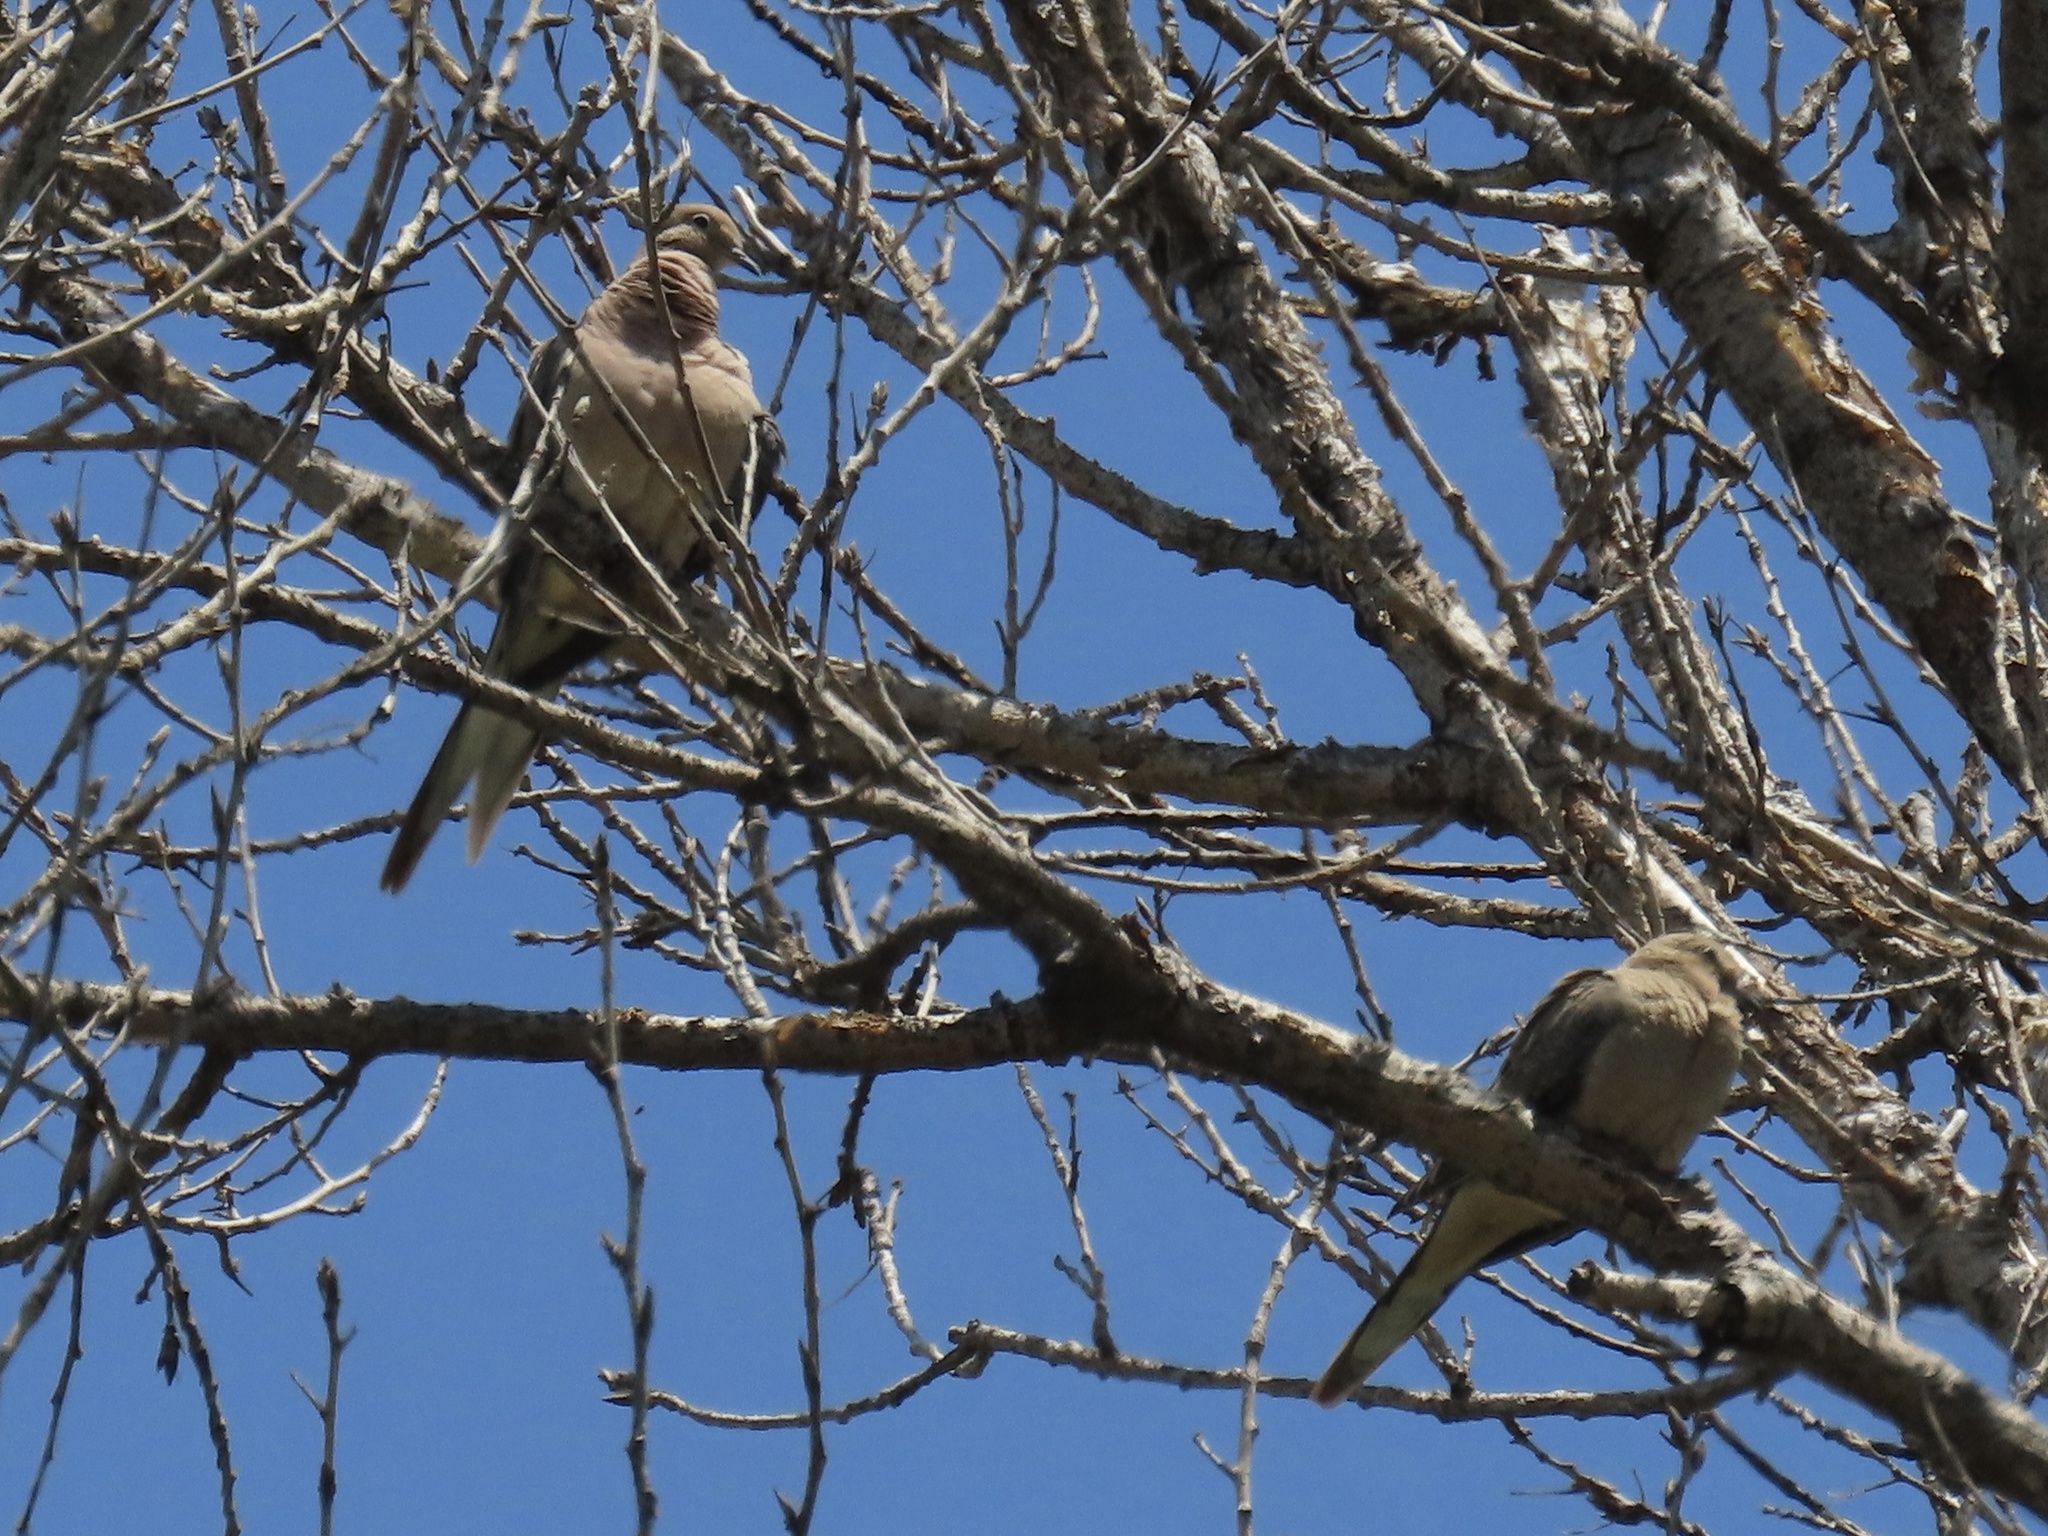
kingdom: Animalia
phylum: Chordata
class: Aves
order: Columbiformes
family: Columbidae
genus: Zenaida
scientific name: Zenaida macroura
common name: Mourning dove
